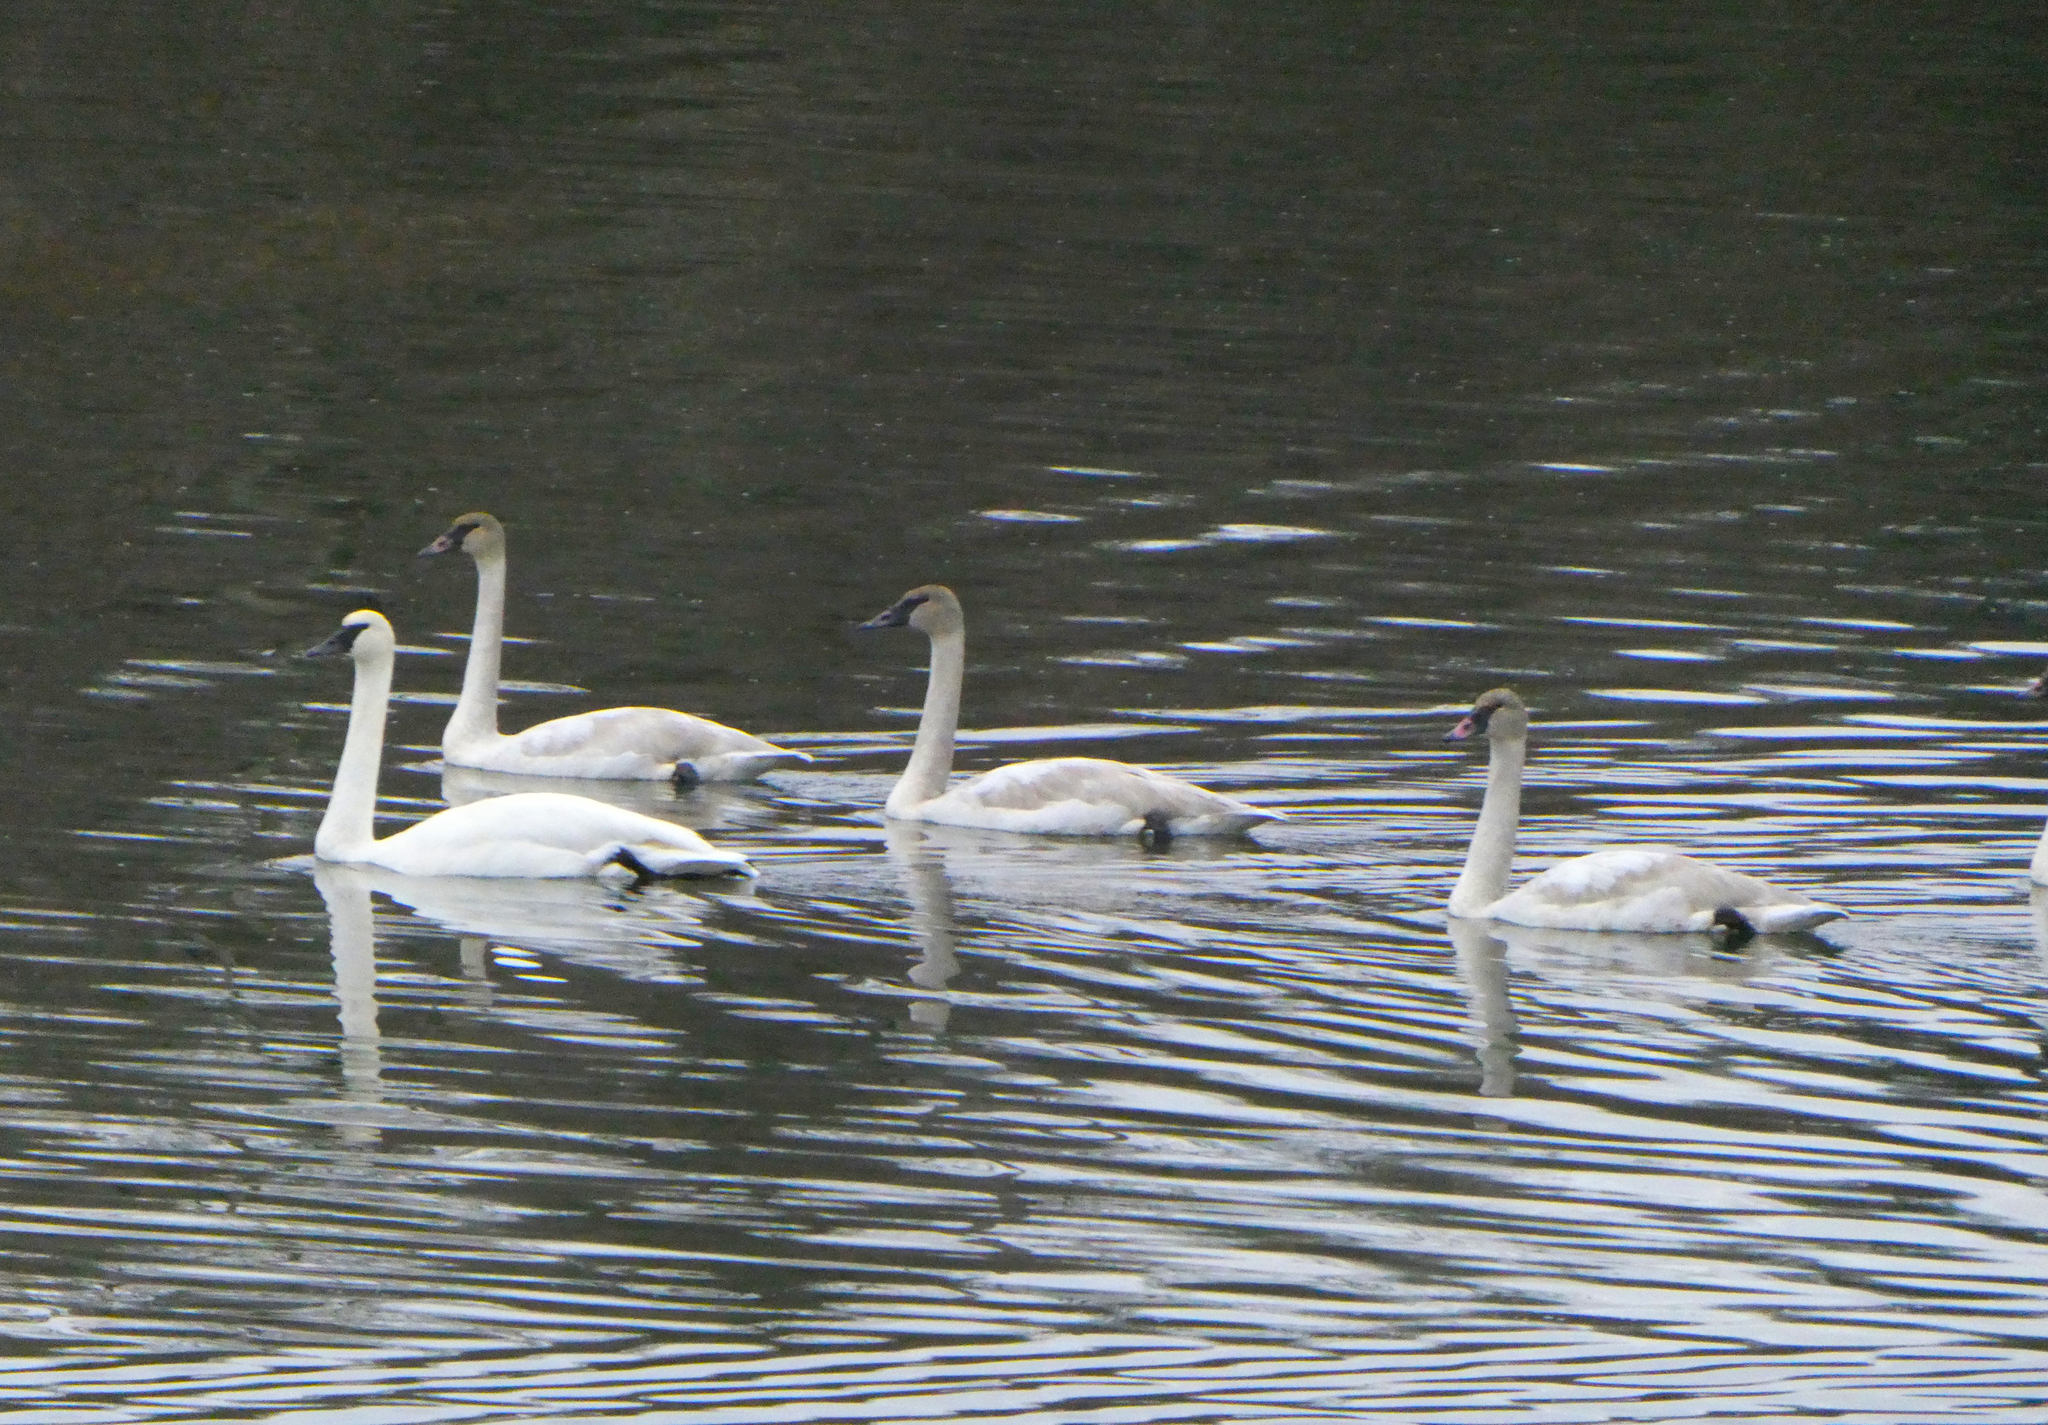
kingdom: Animalia
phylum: Chordata
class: Aves
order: Anseriformes
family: Anatidae
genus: Cygnus
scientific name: Cygnus buccinator
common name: Trumpeter swan
